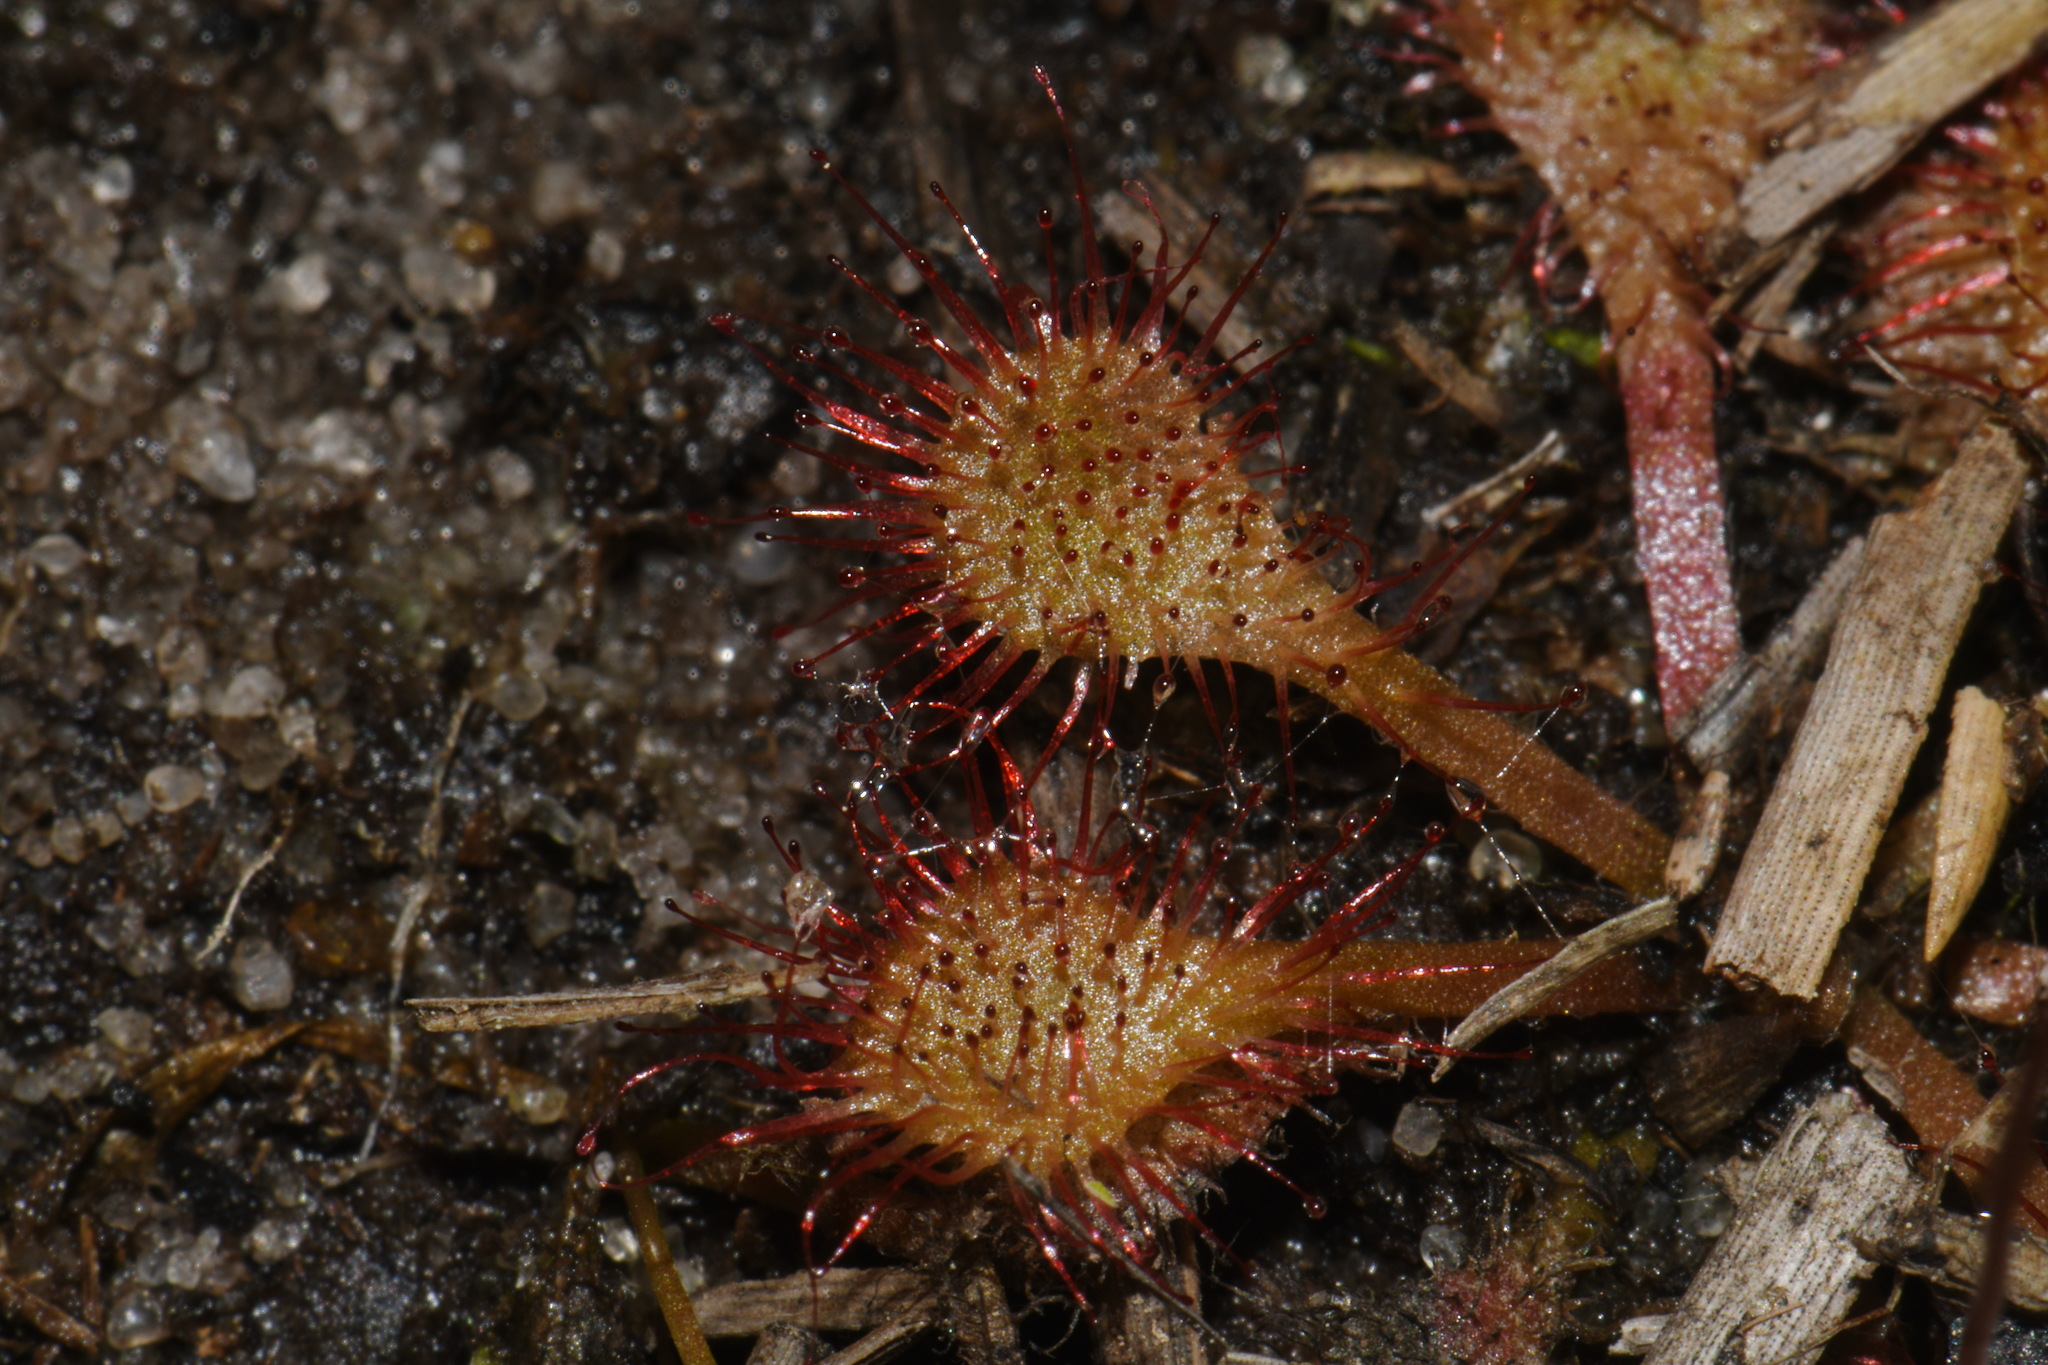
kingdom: Plantae
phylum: Tracheophyta
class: Magnoliopsida
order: Caryophyllales
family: Droseraceae
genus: Drosera
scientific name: Drosera capillaris
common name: Pink sundew
